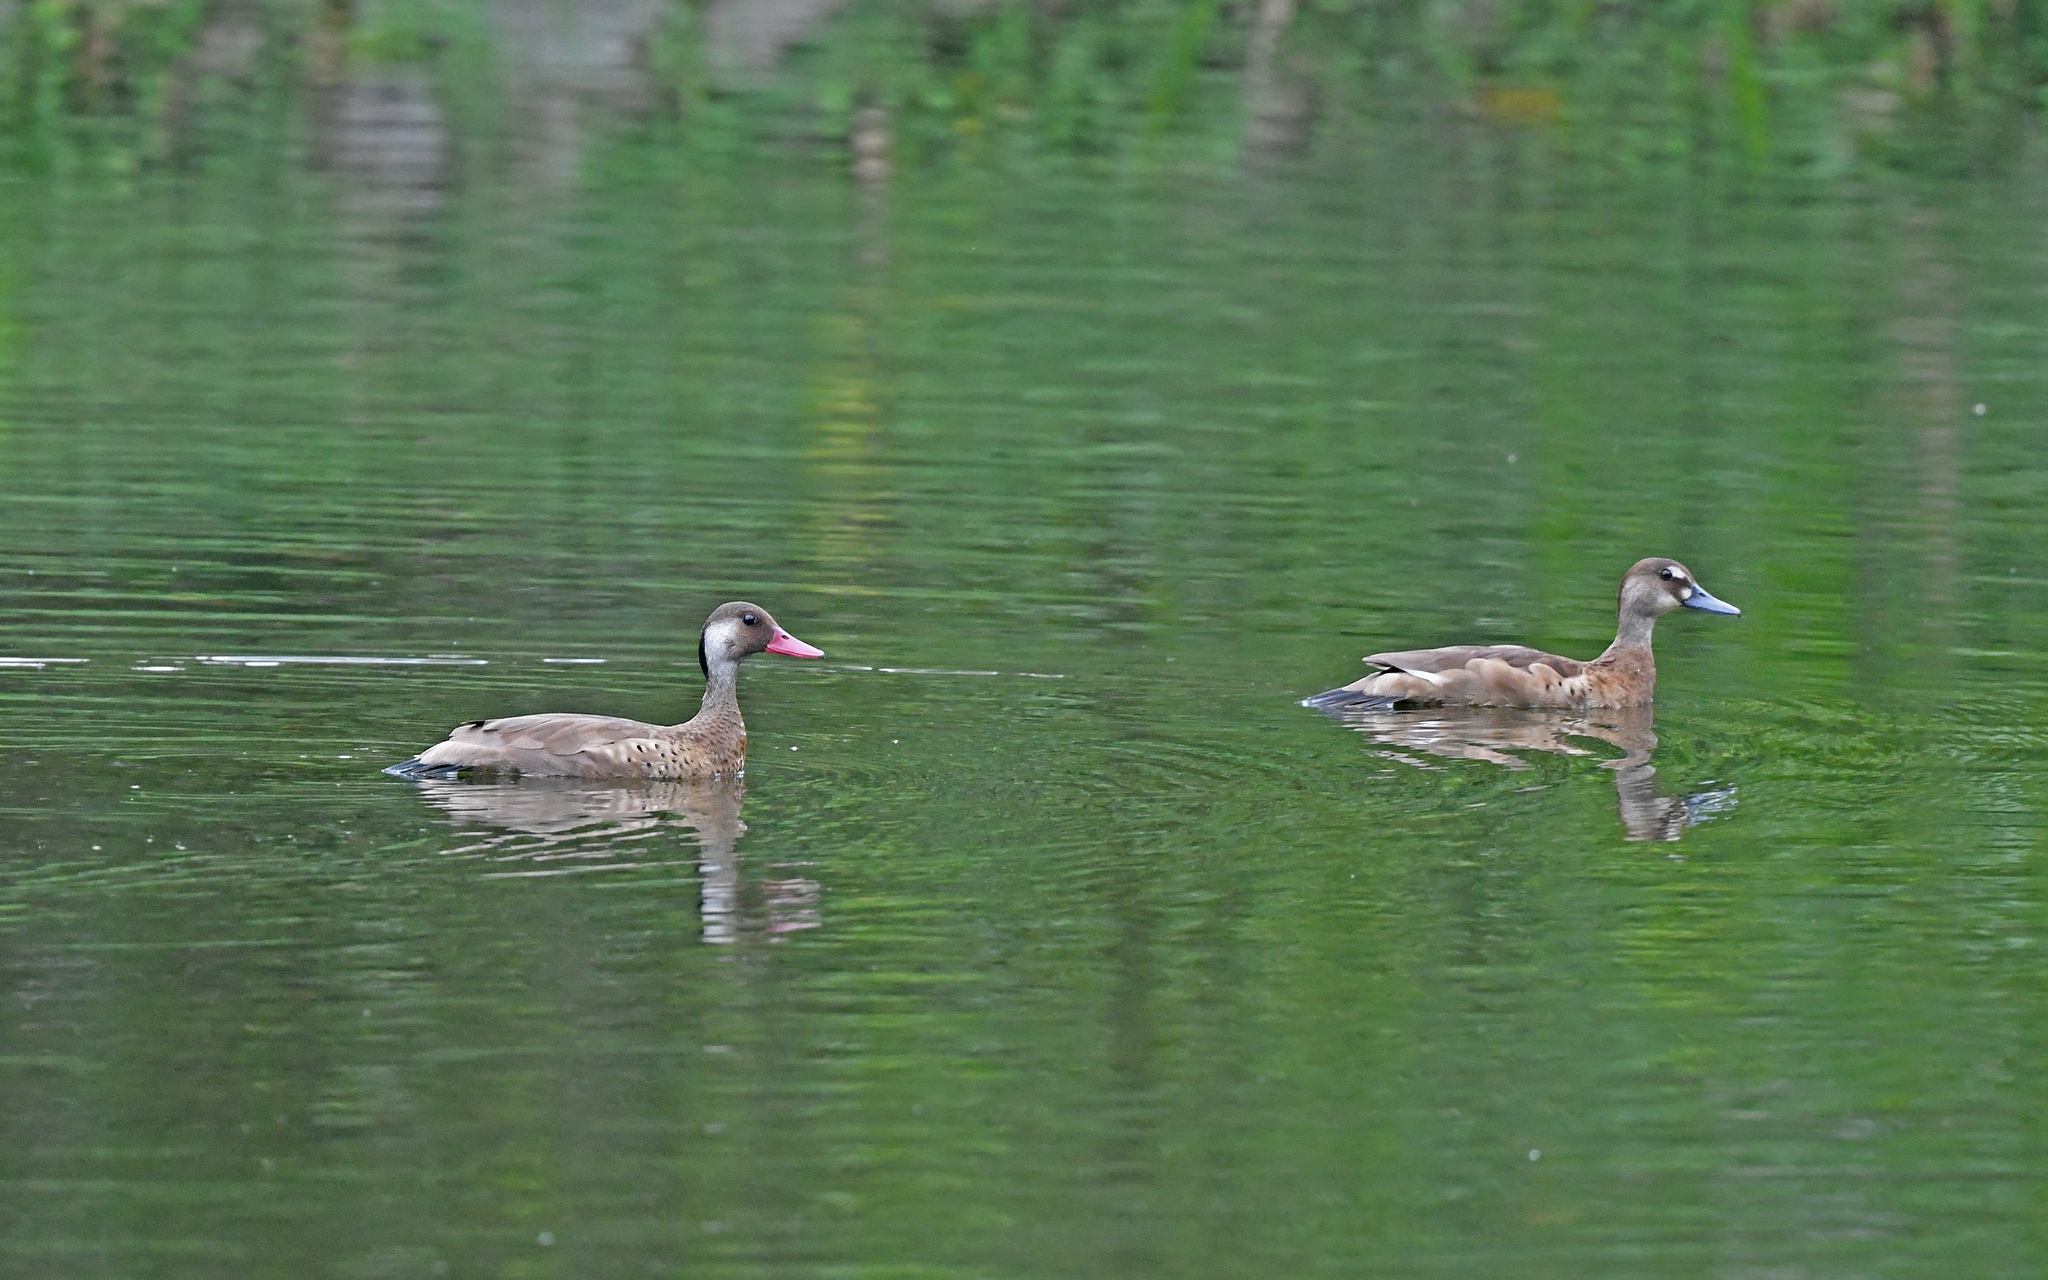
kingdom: Animalia
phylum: Chordata
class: Aves
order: Anseriformes
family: Anatidae
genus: Amazonetta
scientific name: Amazonetta brasiliensis
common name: Brazilian teal
